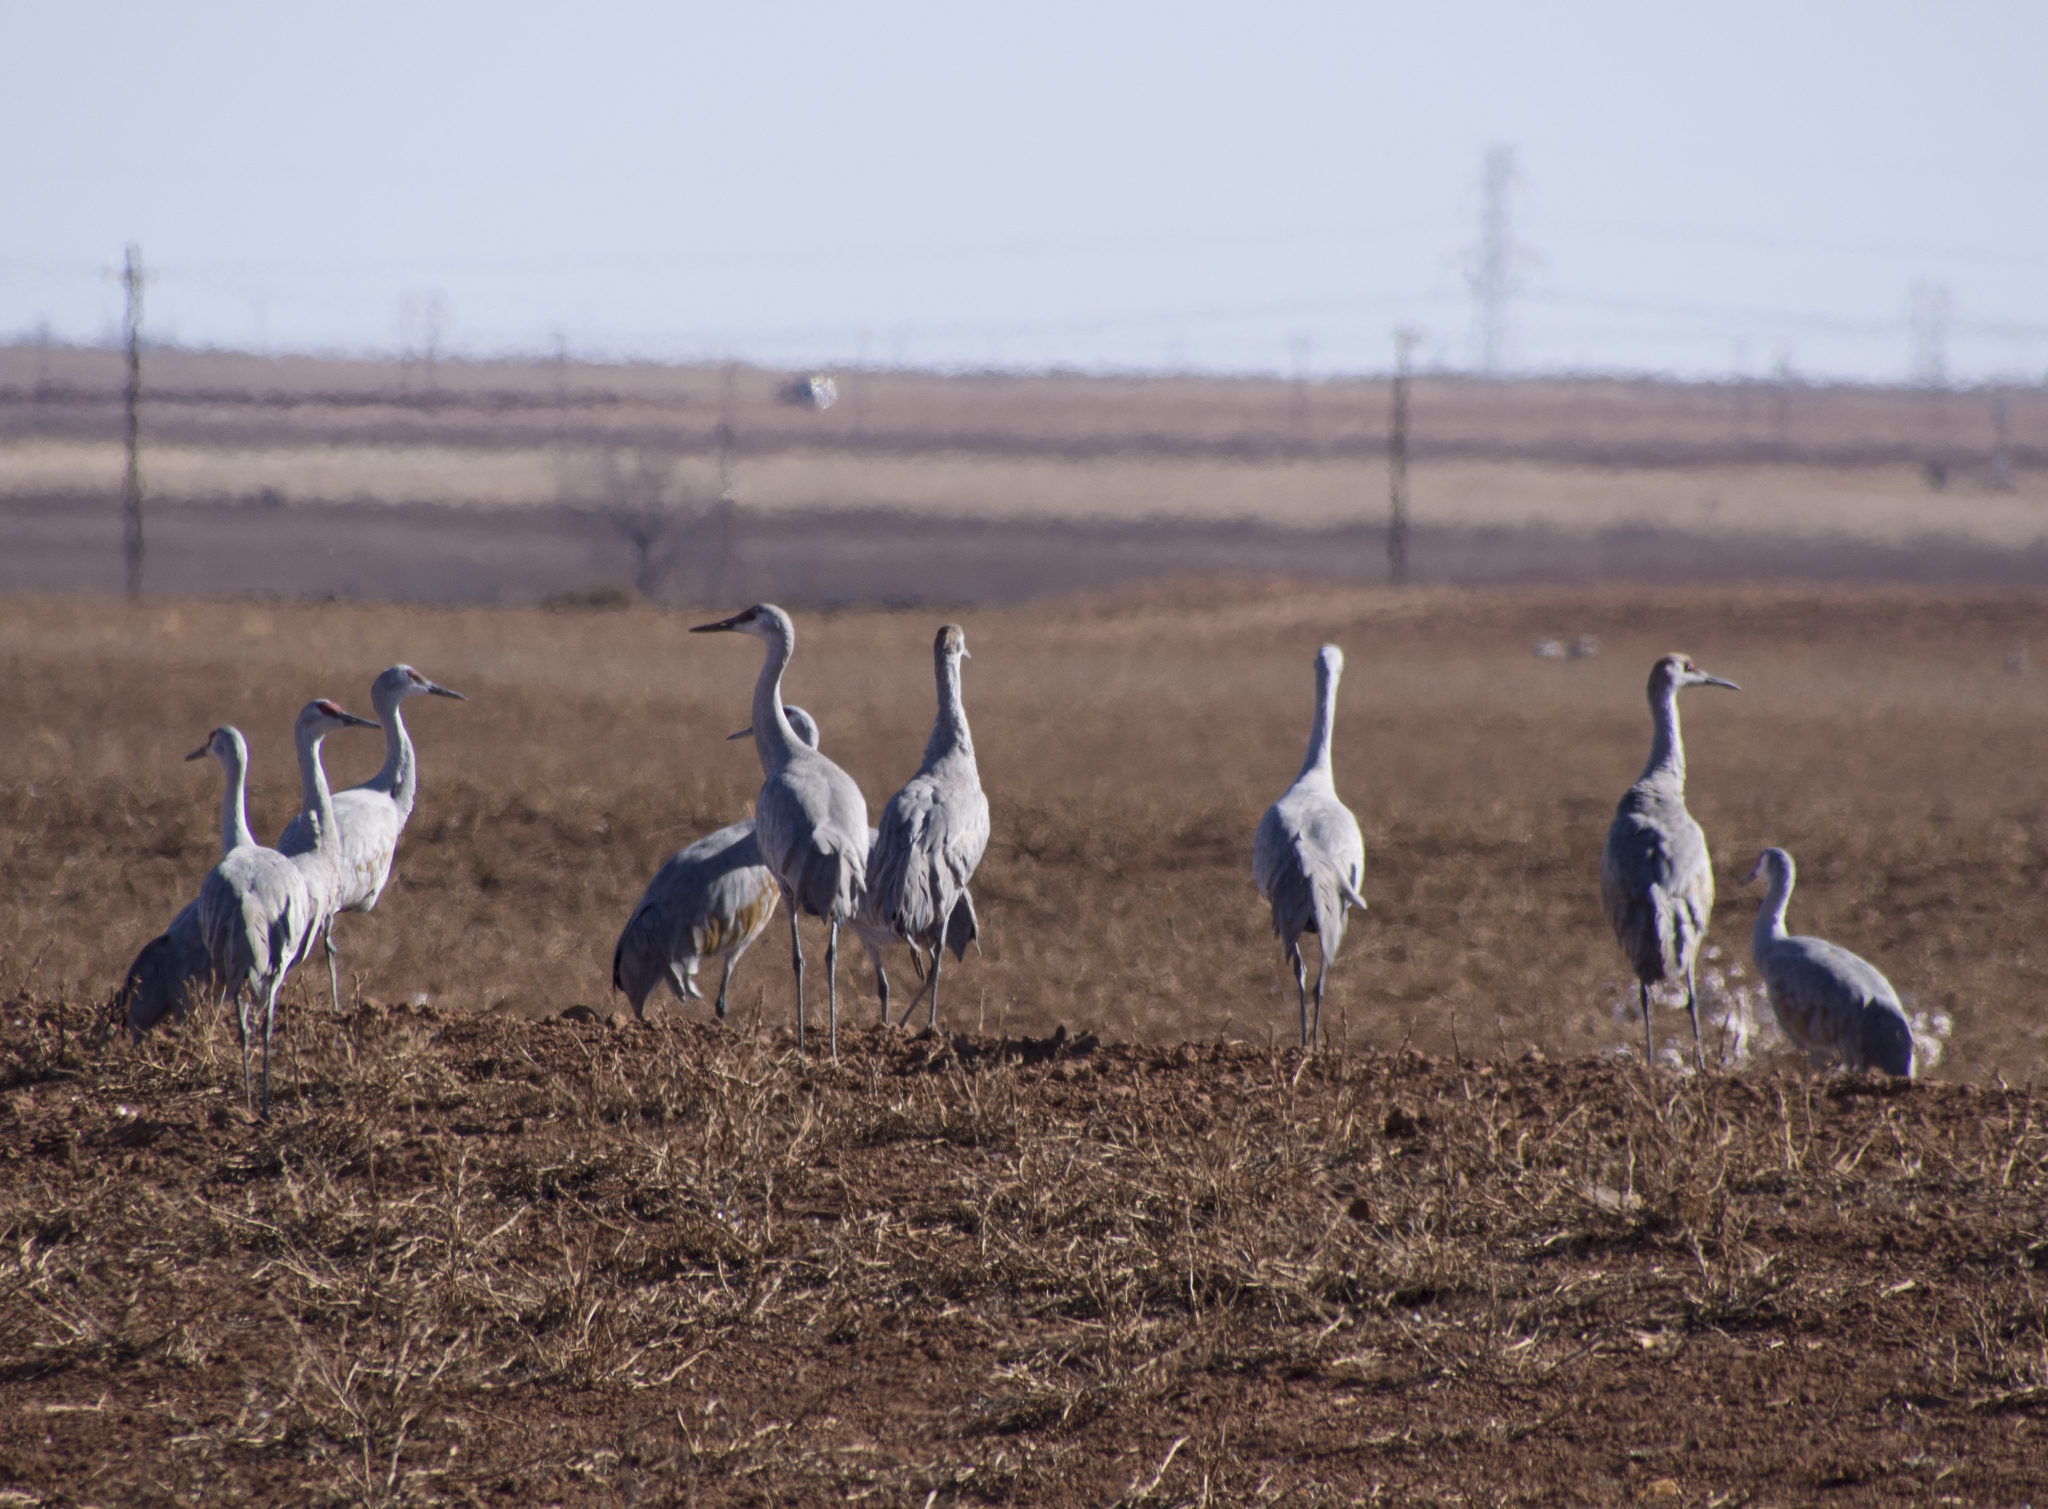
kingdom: Animalia
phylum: Chordata
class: Aves
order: Gruiformes
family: Gruidae
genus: Grus
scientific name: Grus canadensis
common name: Sandhill crane
